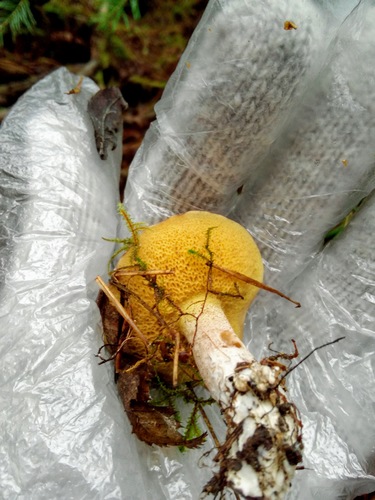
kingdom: Fungi
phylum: Basidiomycota
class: Agaricomycetes
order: Boletales
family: Suillaceae
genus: Suillus
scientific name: Suillus placidus
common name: Slippery white bolete
